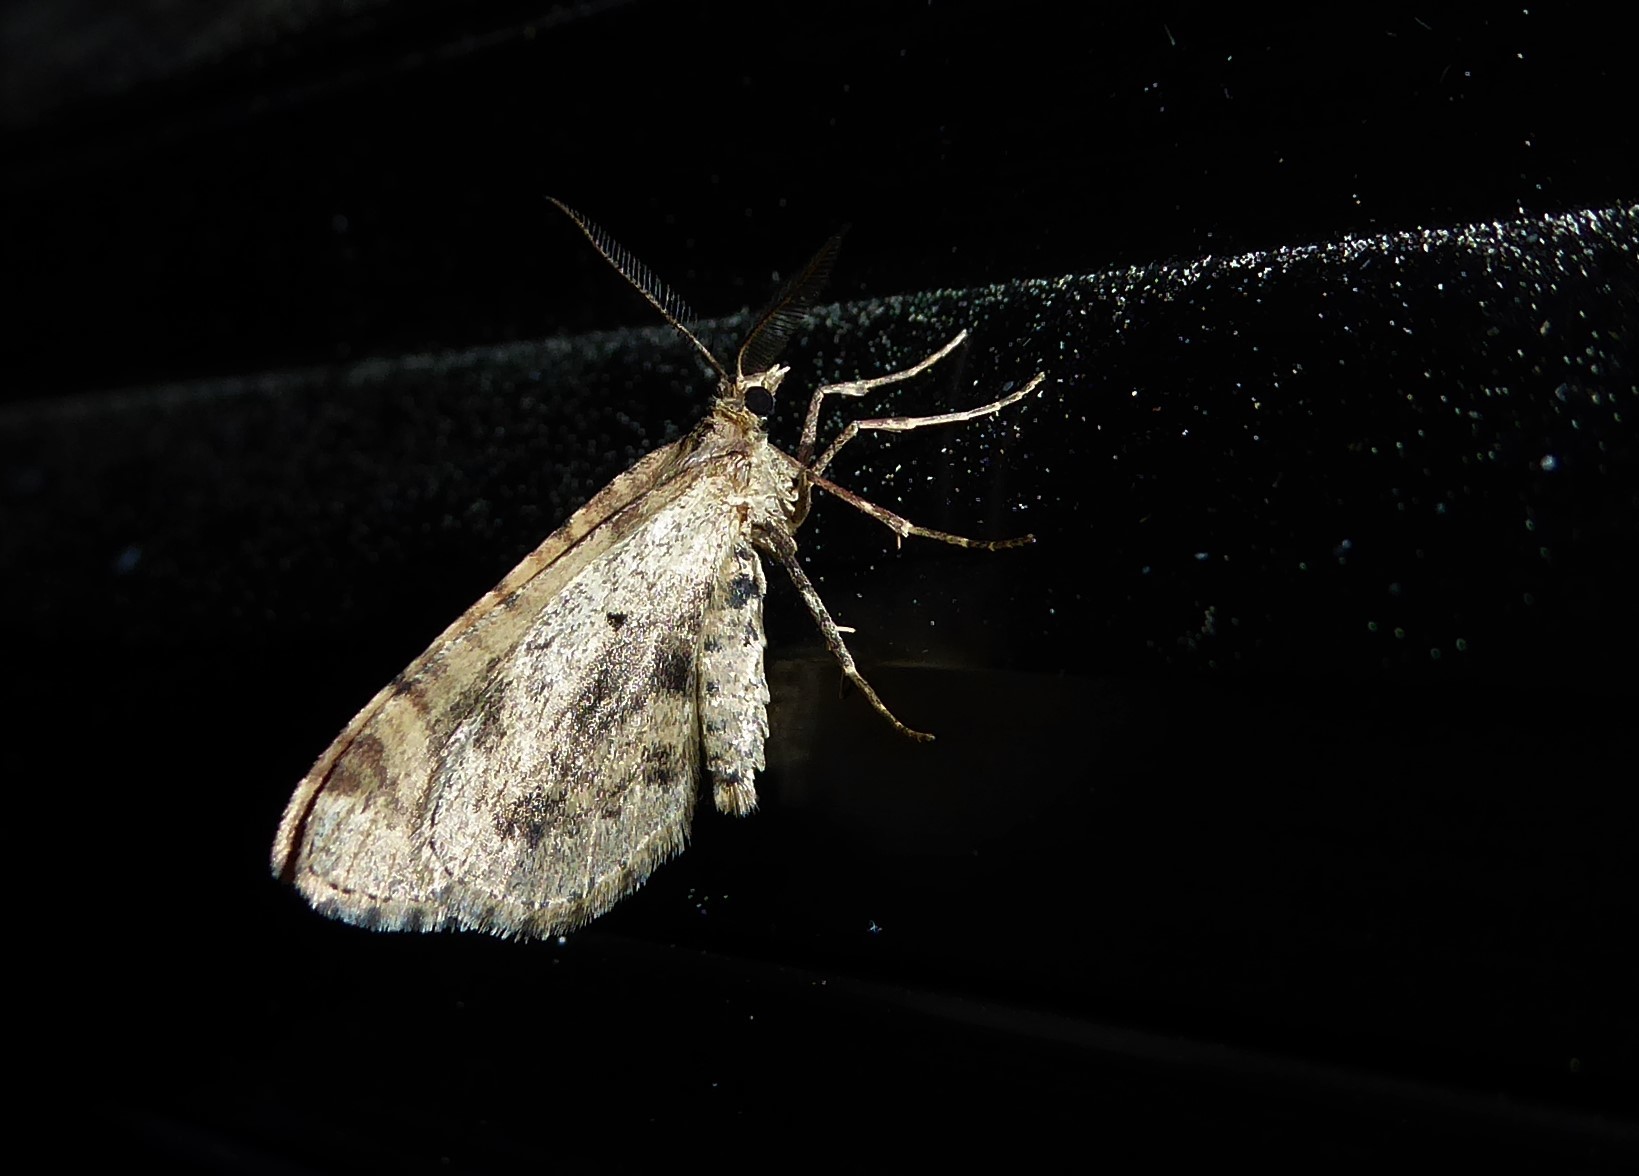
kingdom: Animalia
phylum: Arthropoda
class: Insecta
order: Lepidoptera
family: Geometridae
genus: Asaphodes
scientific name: Asaphodes aegrota
